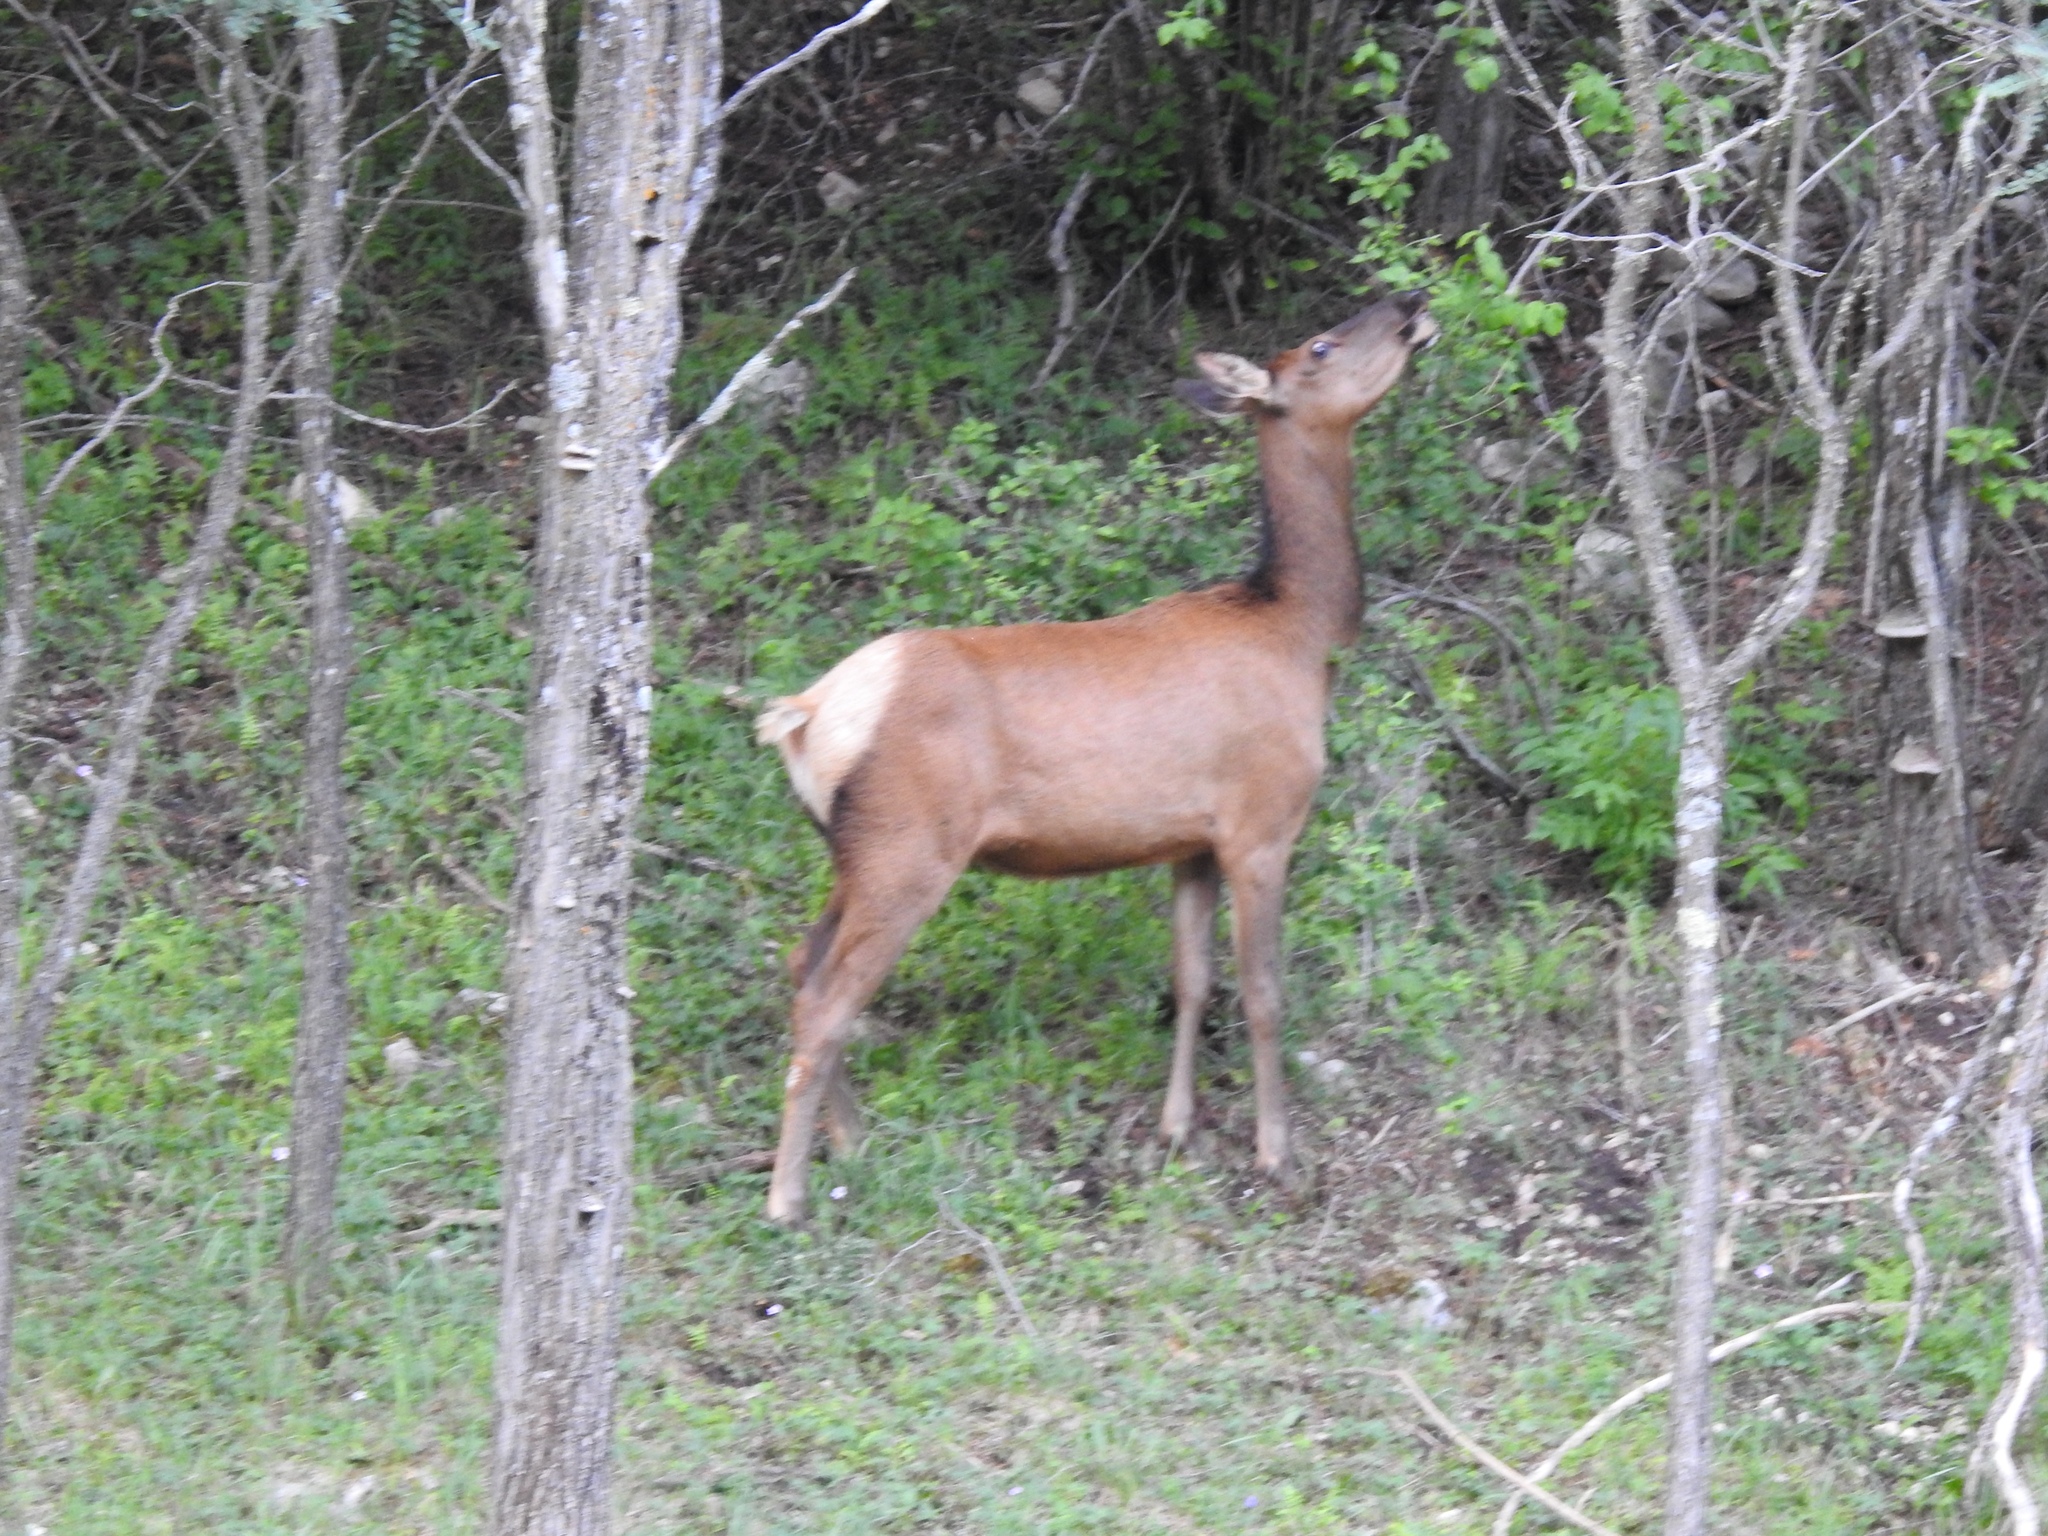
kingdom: Animalia
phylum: Chordata
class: Mammalia
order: Artiodactyla
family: Cervidae
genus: Cervus
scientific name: Cervus elaphus
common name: Red deer
